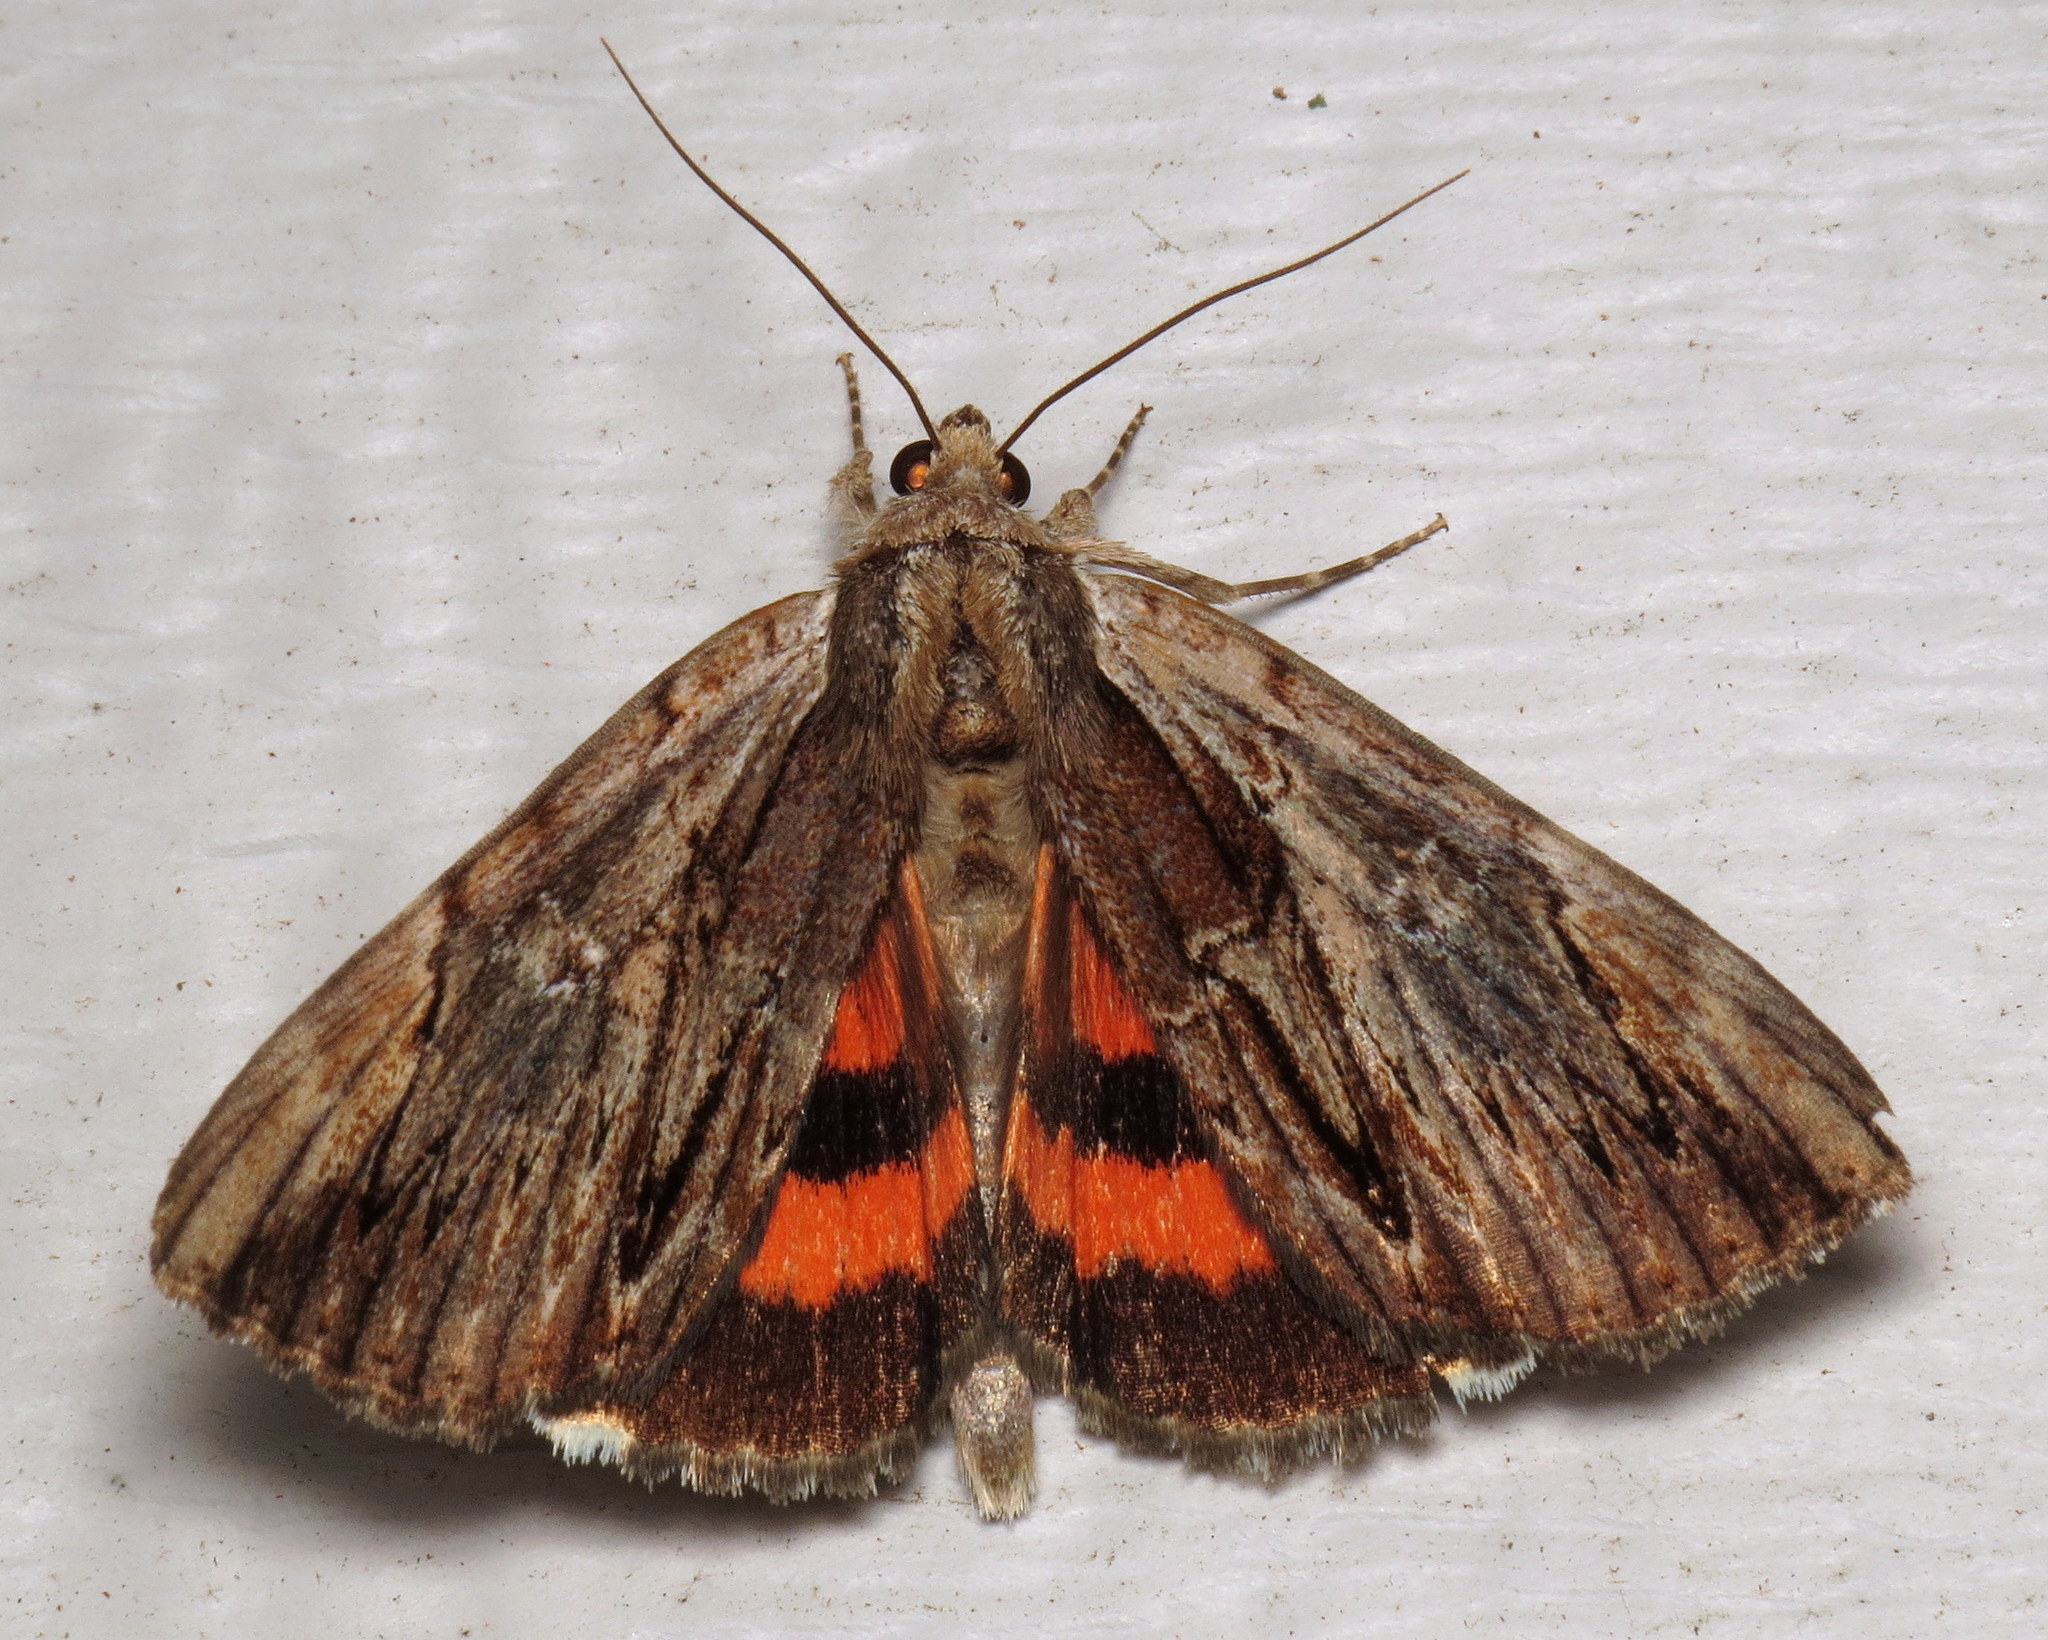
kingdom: Animalia
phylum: Arthropoda
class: Insecta
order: Lepidoptera
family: Erebidae
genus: Catocala
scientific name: Catocala ultronia
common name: Ultronia underwing
